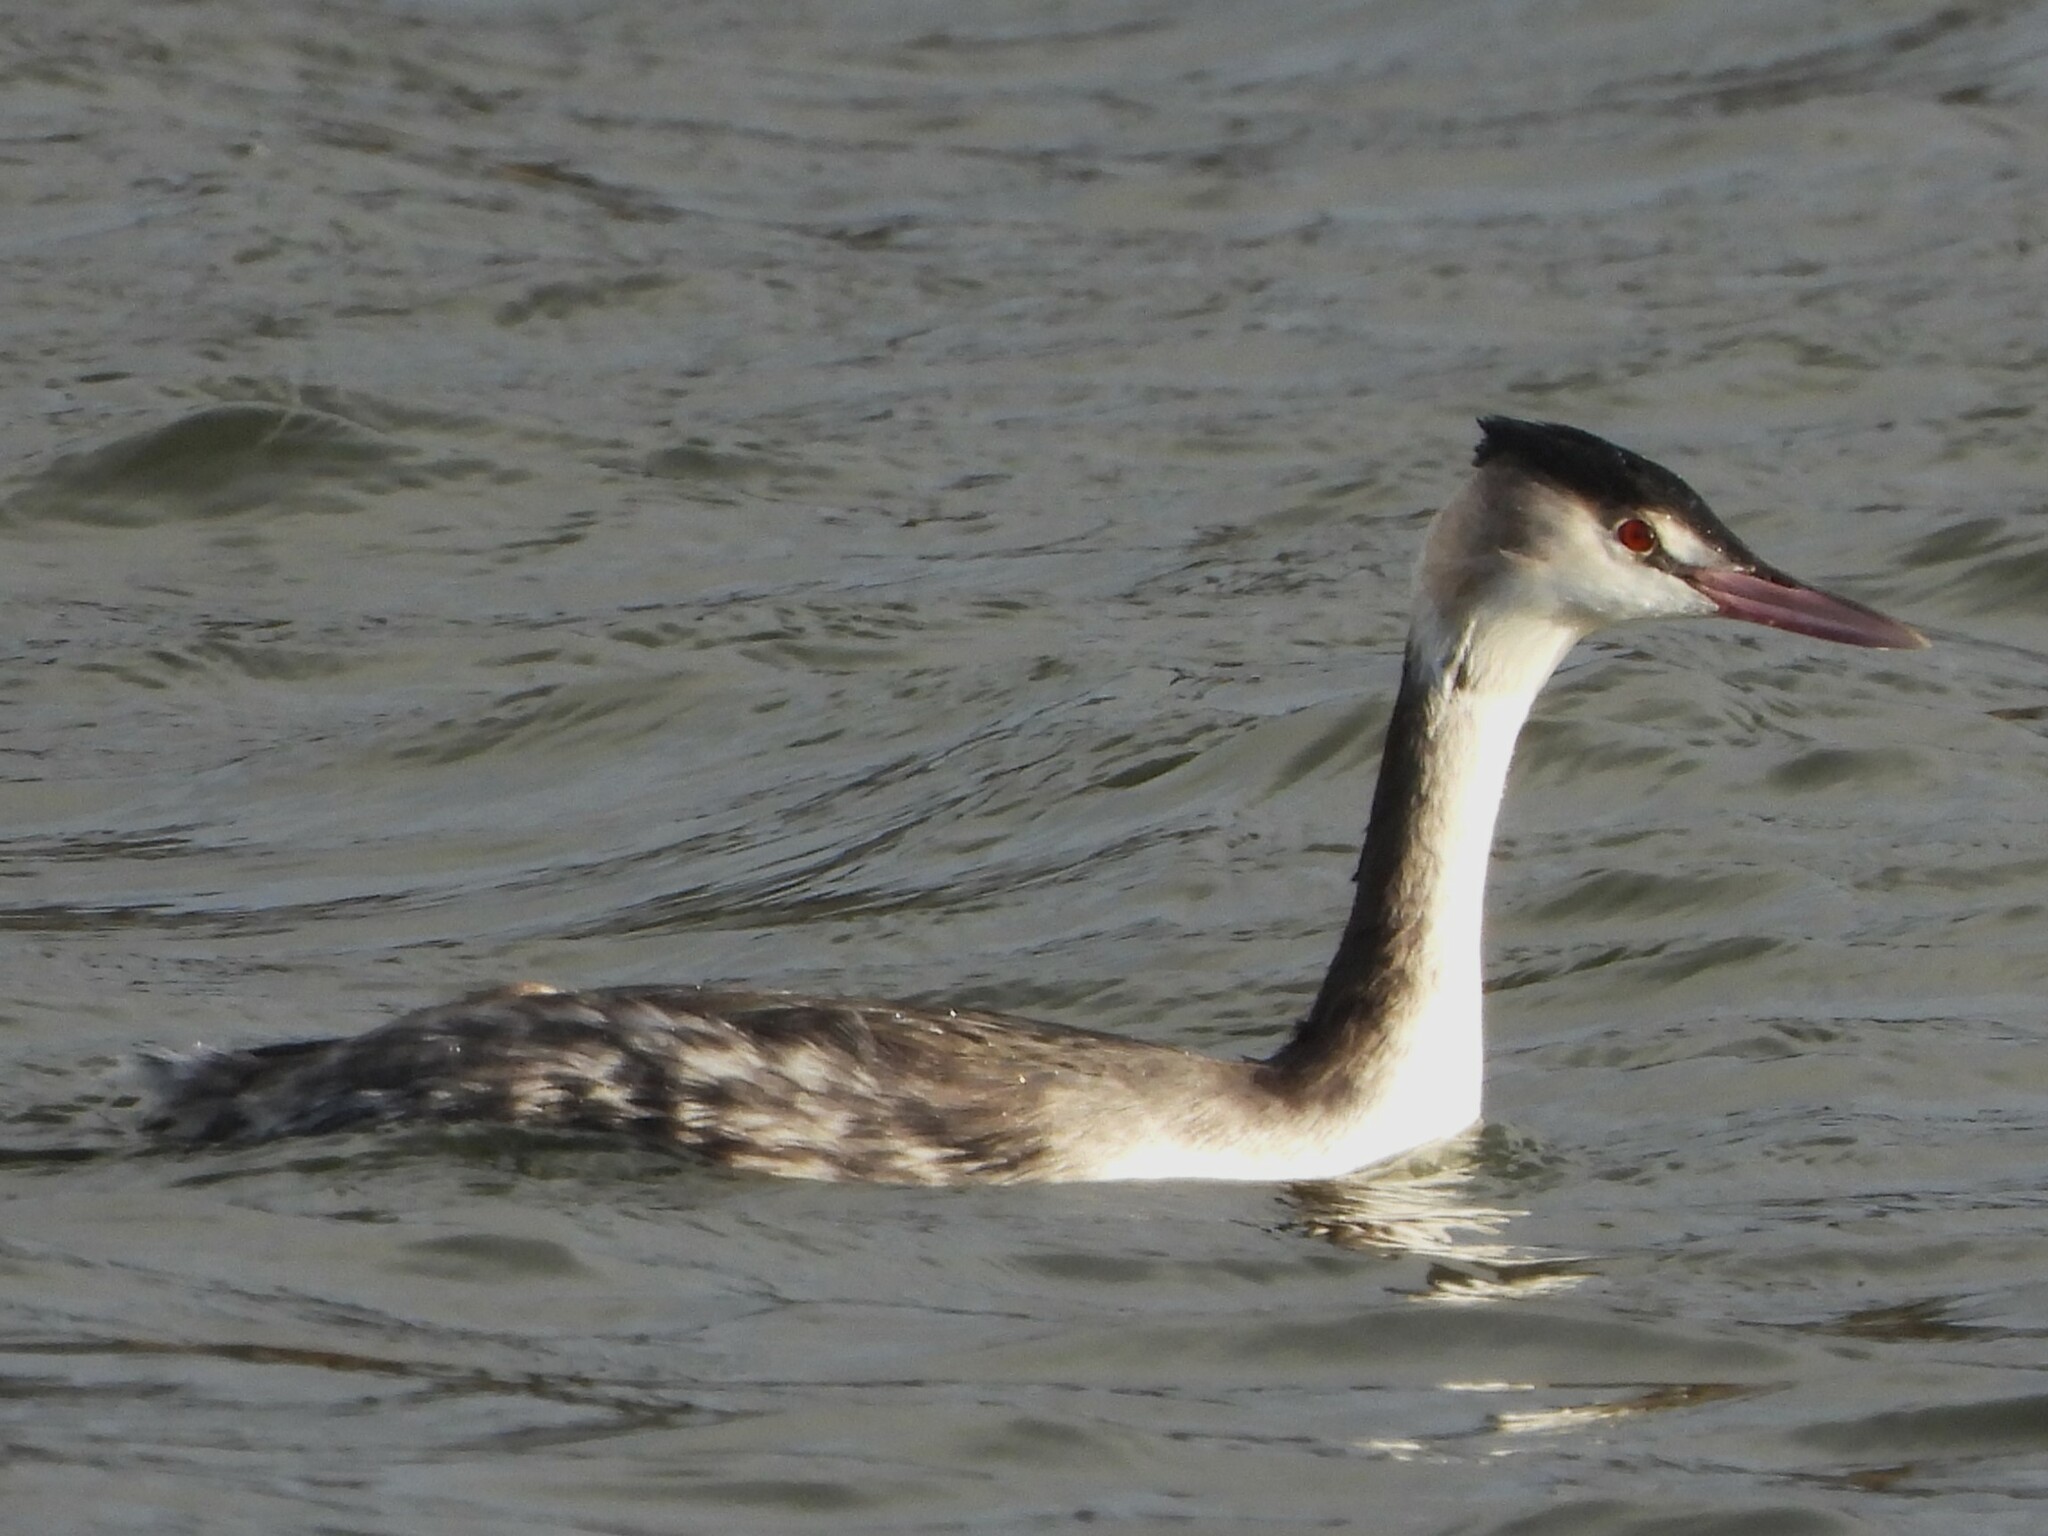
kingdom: Animalia
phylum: Chordata
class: Aves
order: Podicipediformes
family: Podicipedidae
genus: Podiceps
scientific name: Podiceps cristatus
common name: Great crested grebe
